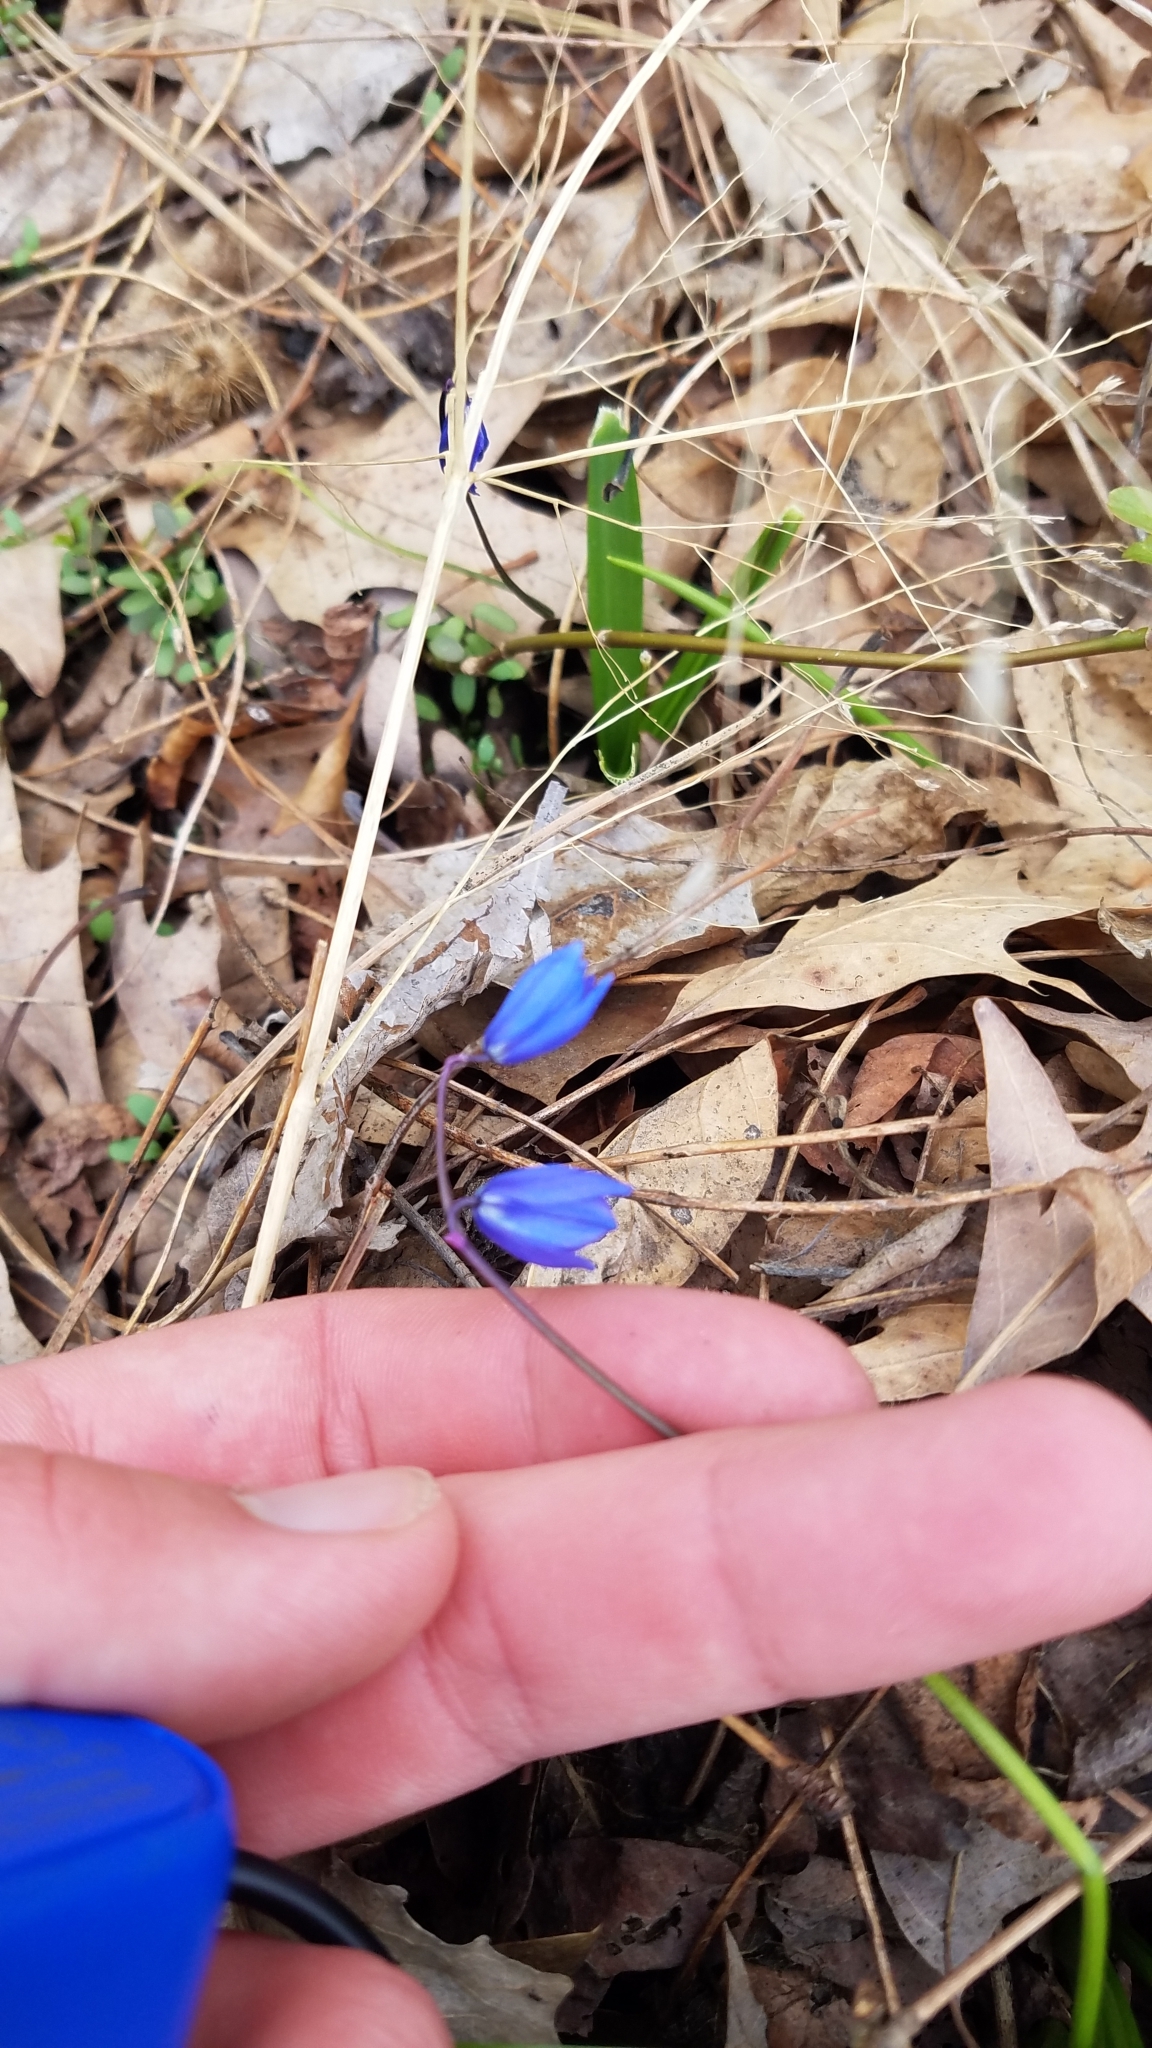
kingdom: Plantae
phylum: Tracheophyta
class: Liliopsida
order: Asparagales
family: Asparagaceae
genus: Scilla
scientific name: Scilla siberica
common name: Siberian squill
